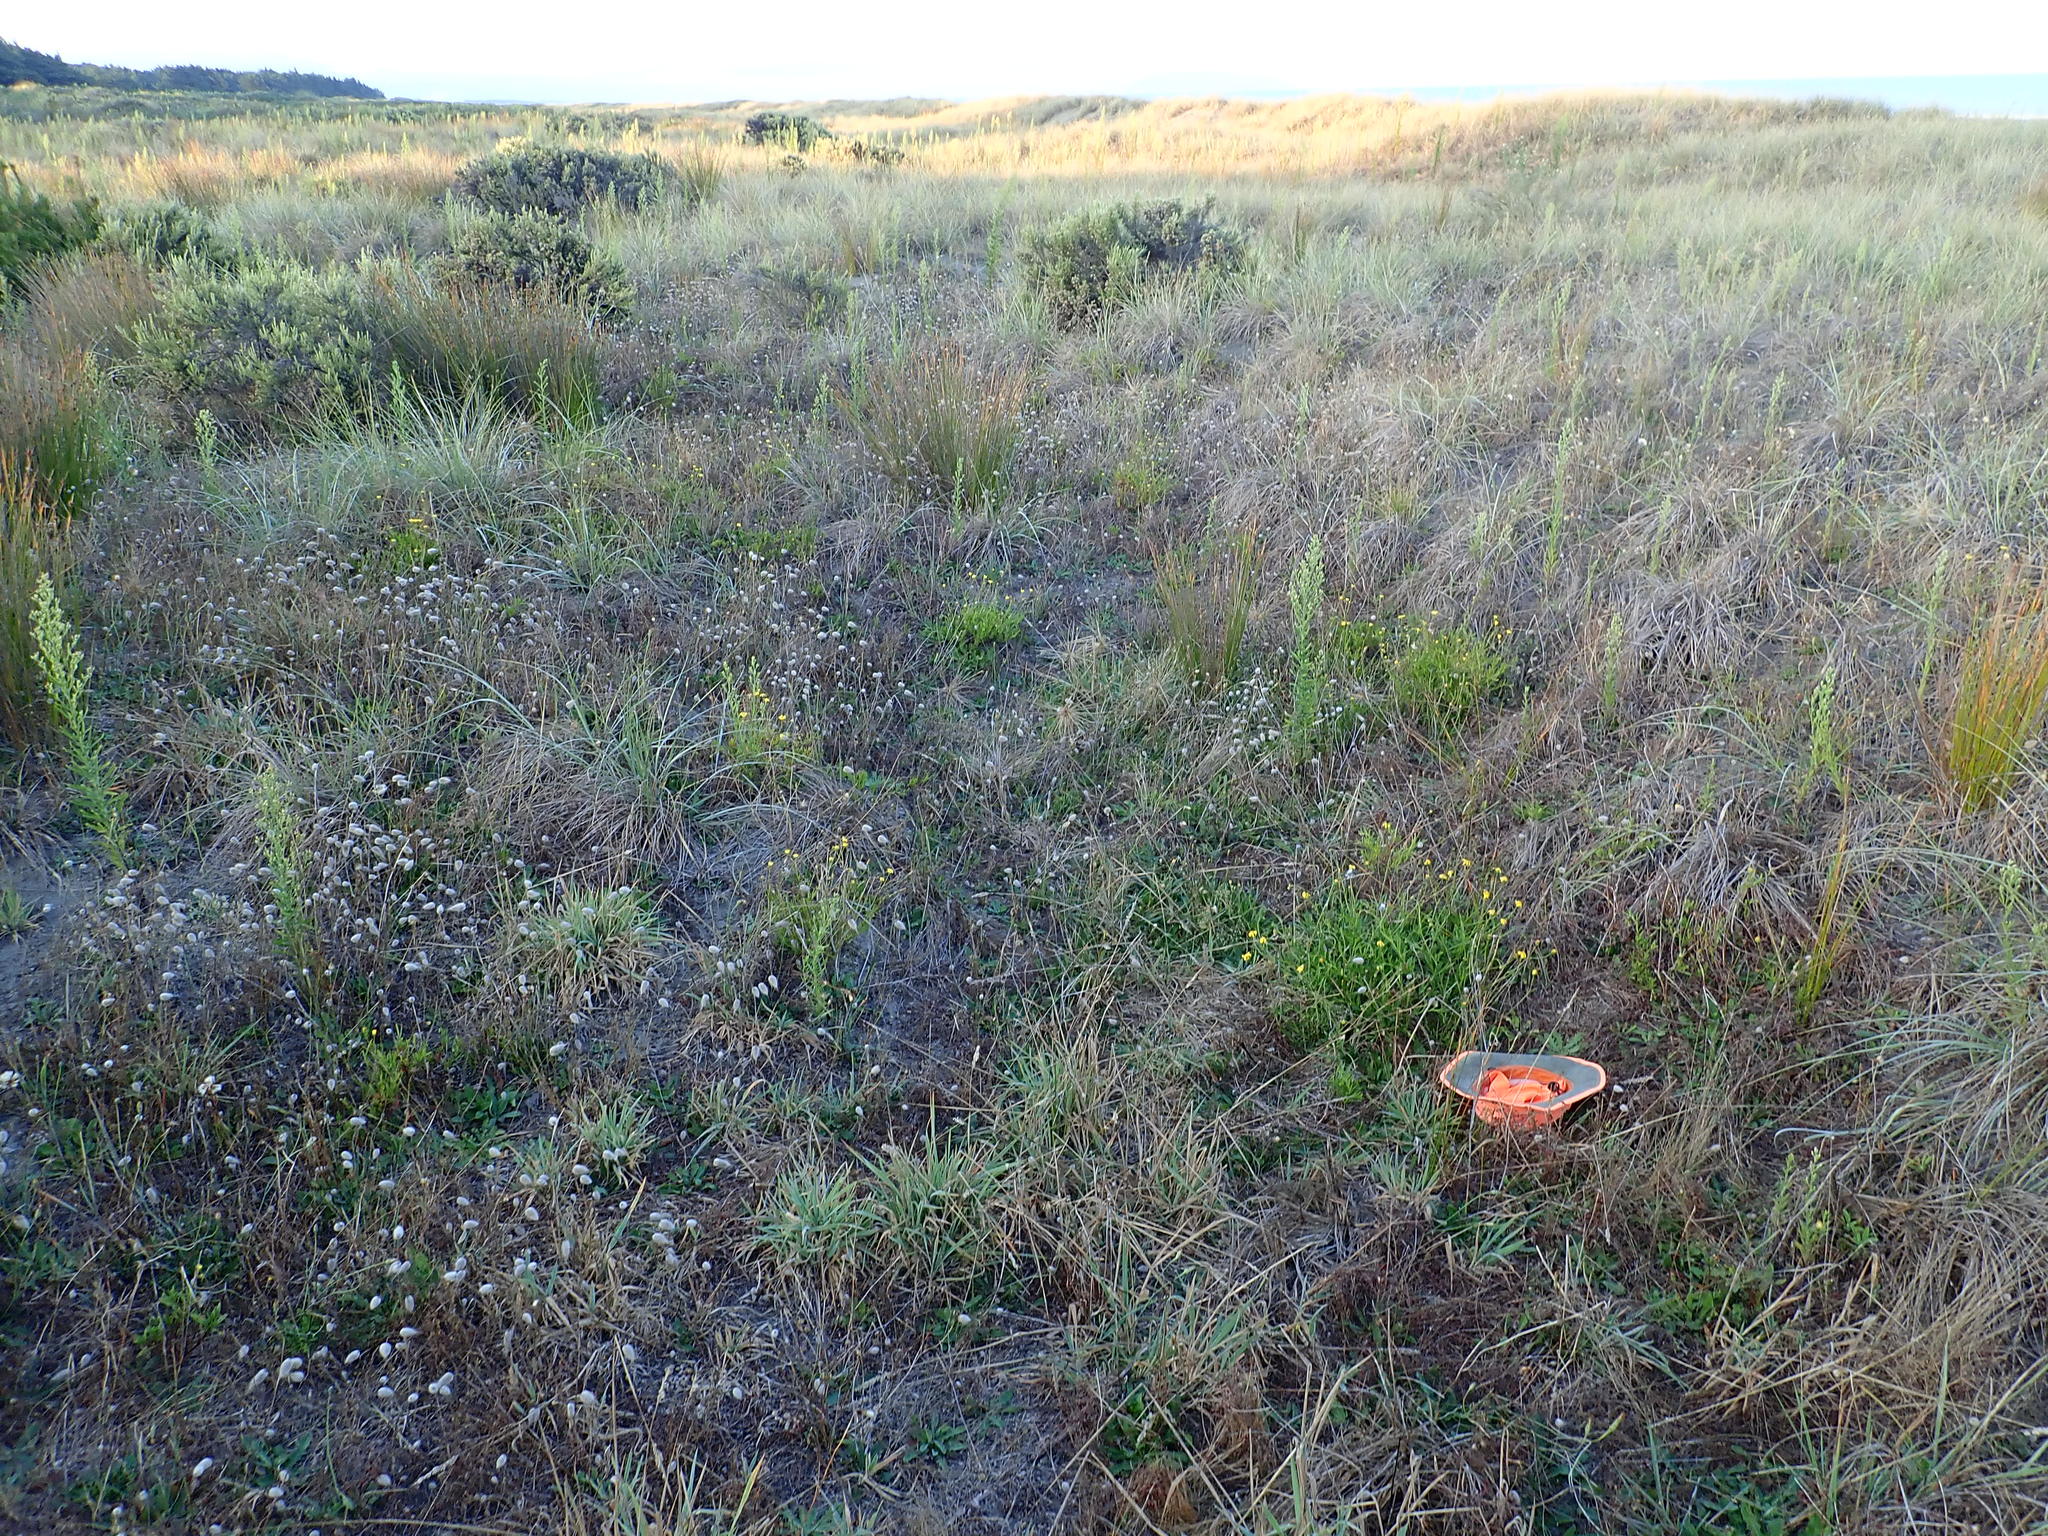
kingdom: Plantae
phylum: Tracheophyta
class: Magnoliopsida
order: Asterales
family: Asteraceae
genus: Senecio
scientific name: Senecio skirrhodon
